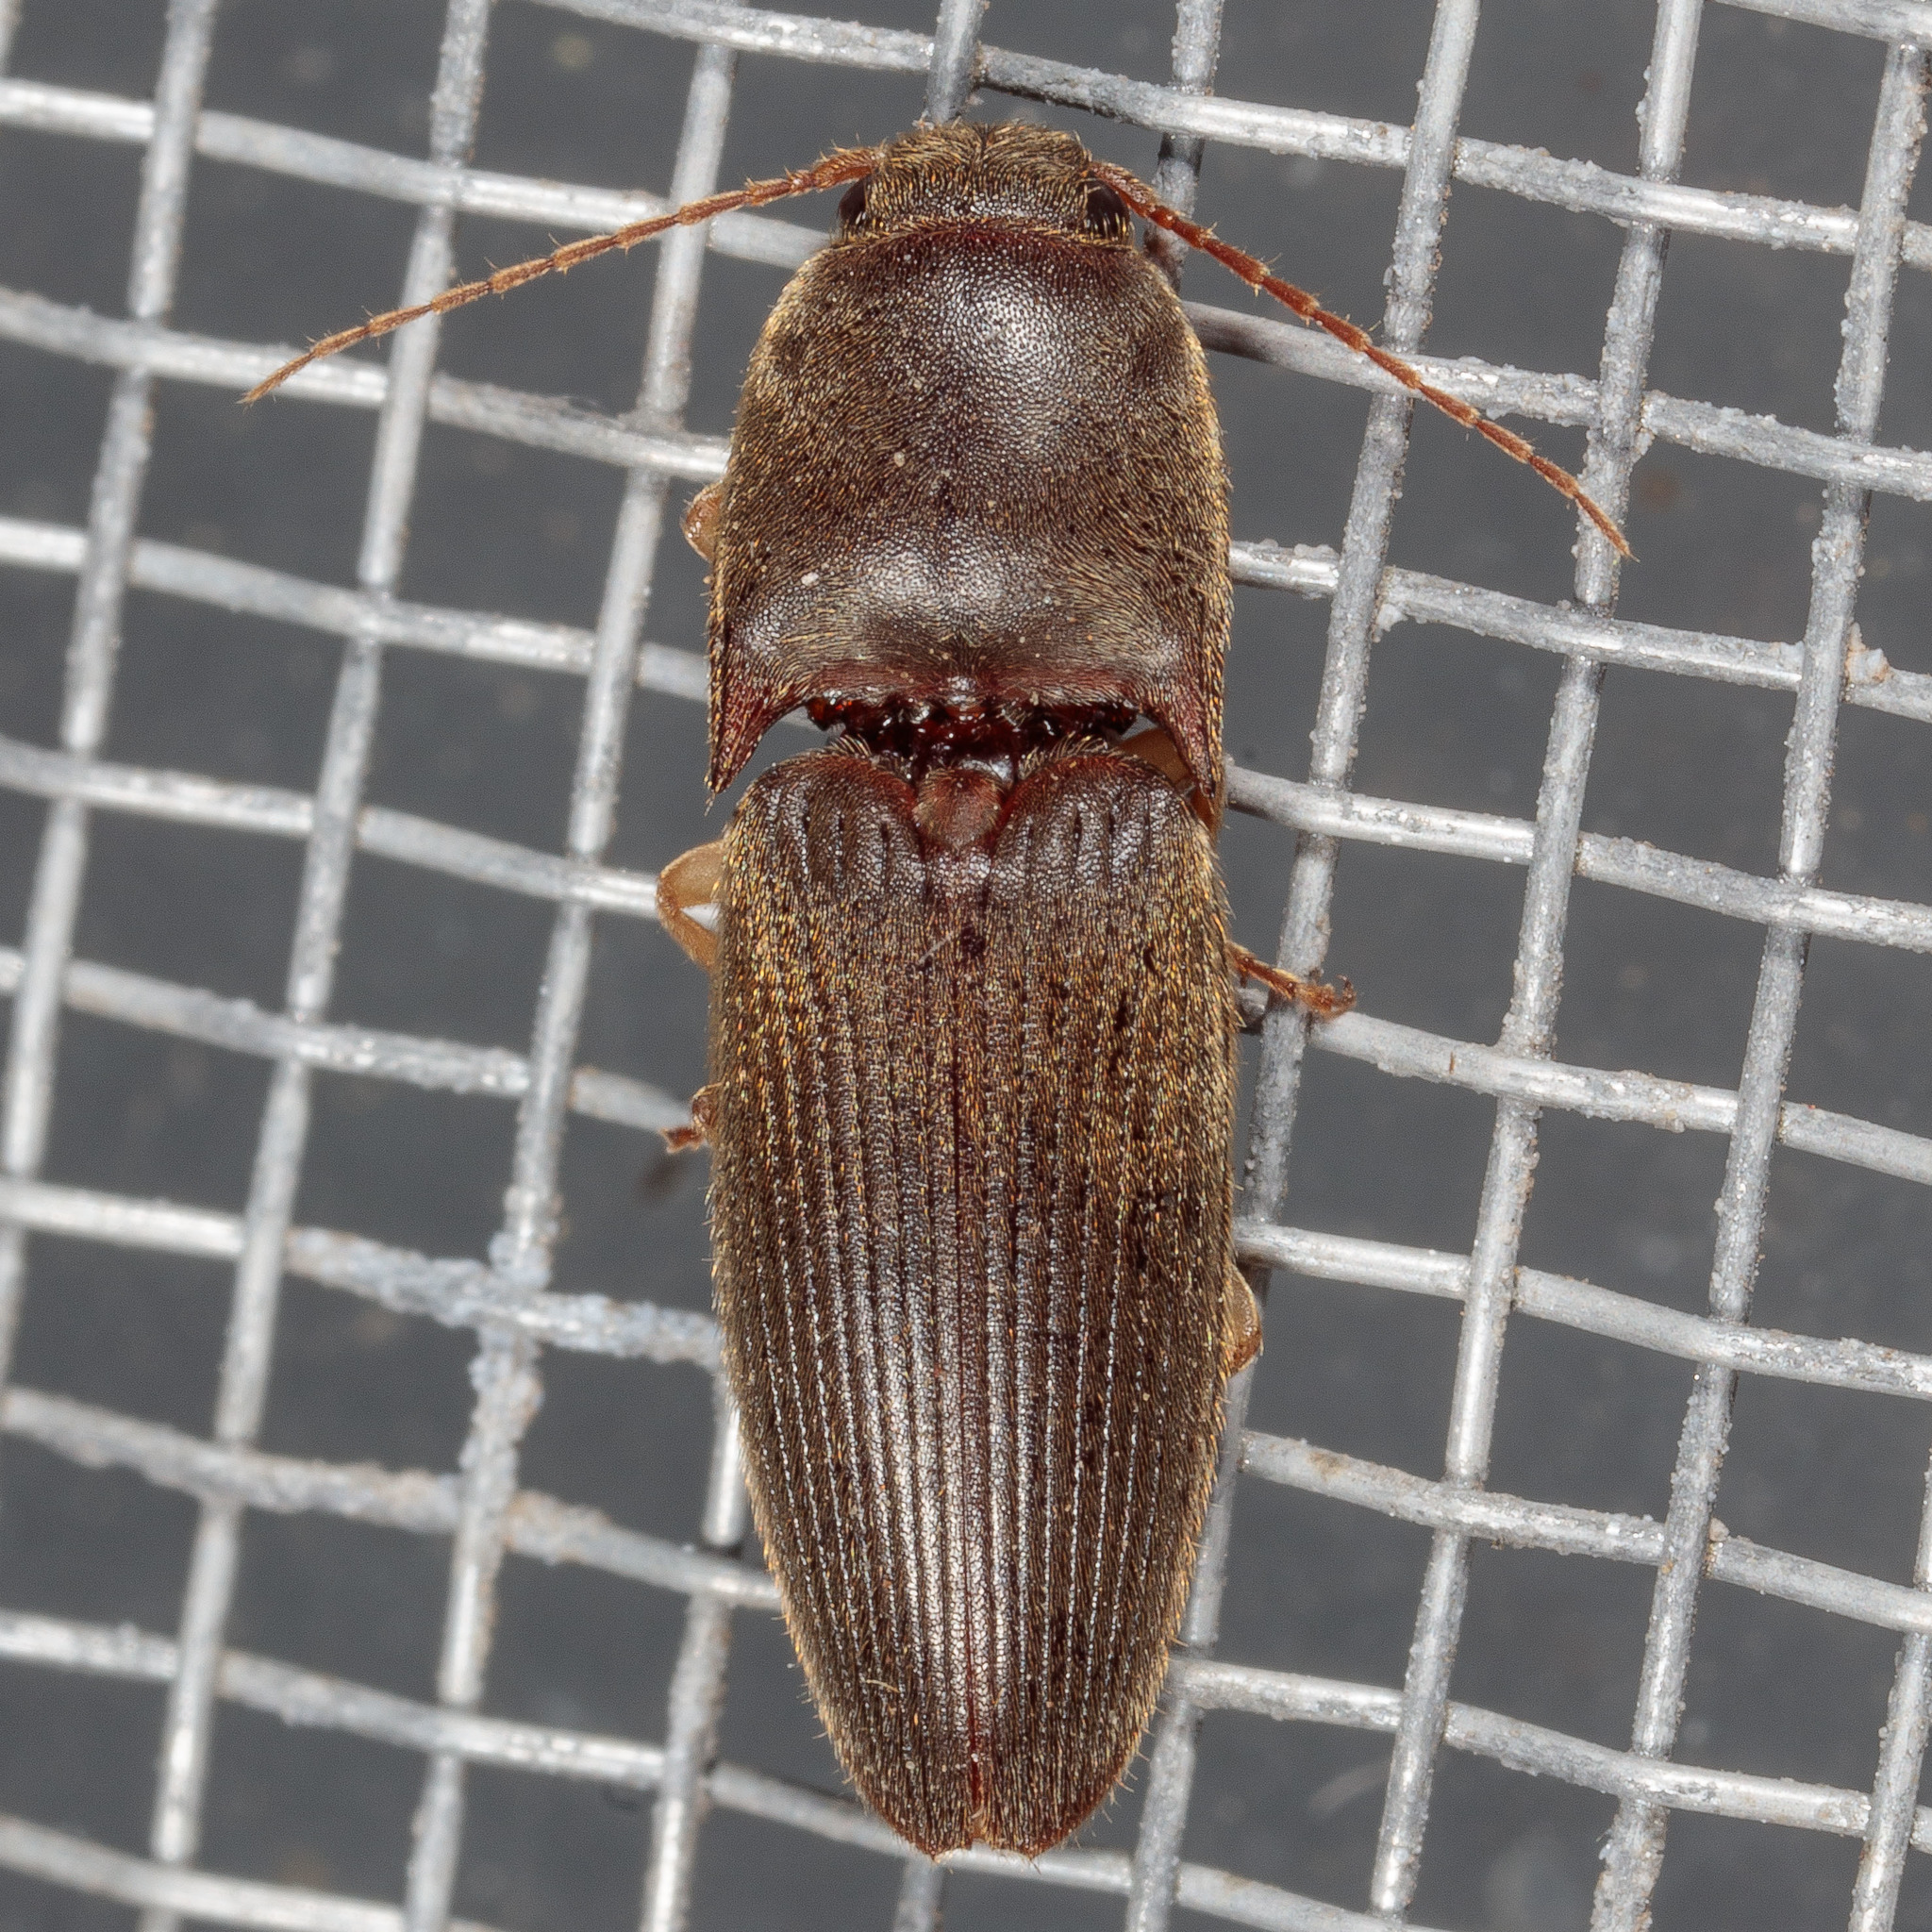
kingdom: Animalia
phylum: Arthropoda
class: Insecta
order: Coleoptera
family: Elateridae
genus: Conoderus
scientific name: Conoderus exsul
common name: Click beetle
